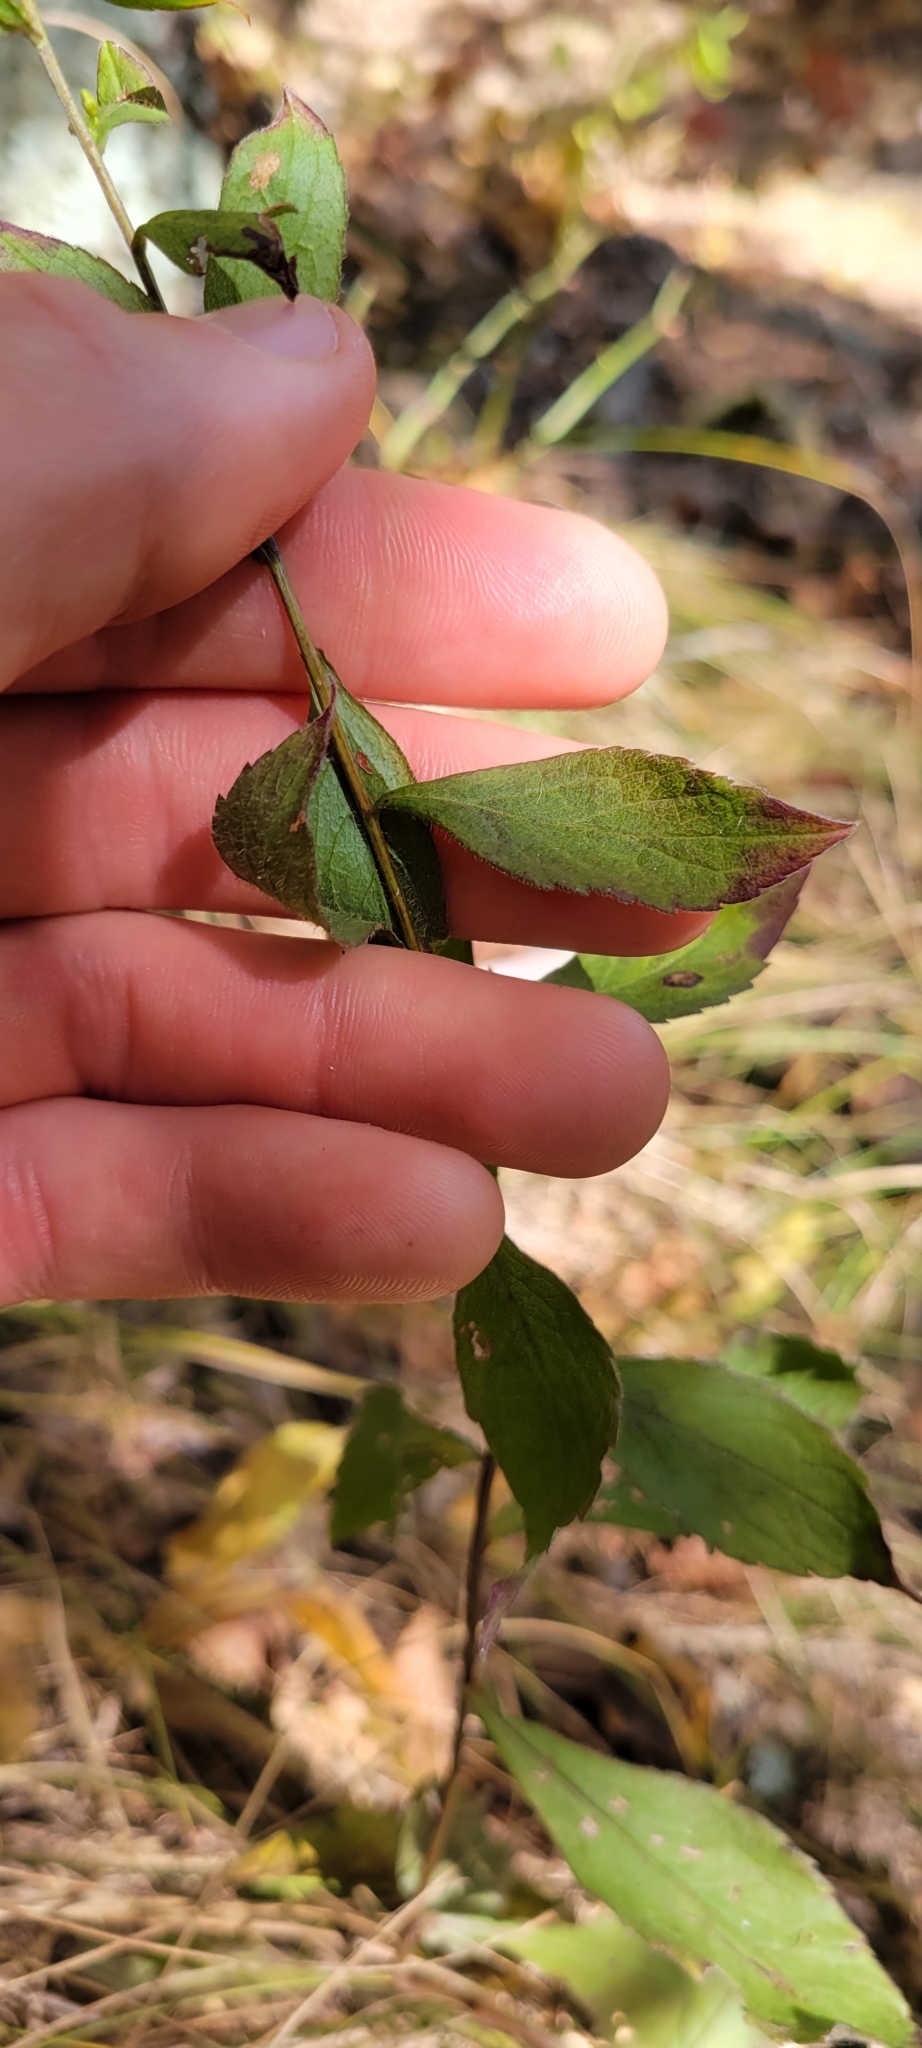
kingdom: Plantae
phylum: Tracheophyta
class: Magnoliopsida
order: Asterales
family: Asteraceae
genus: Solidago
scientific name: Solidago ulmifolia
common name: Elm-leaf goldenrod
